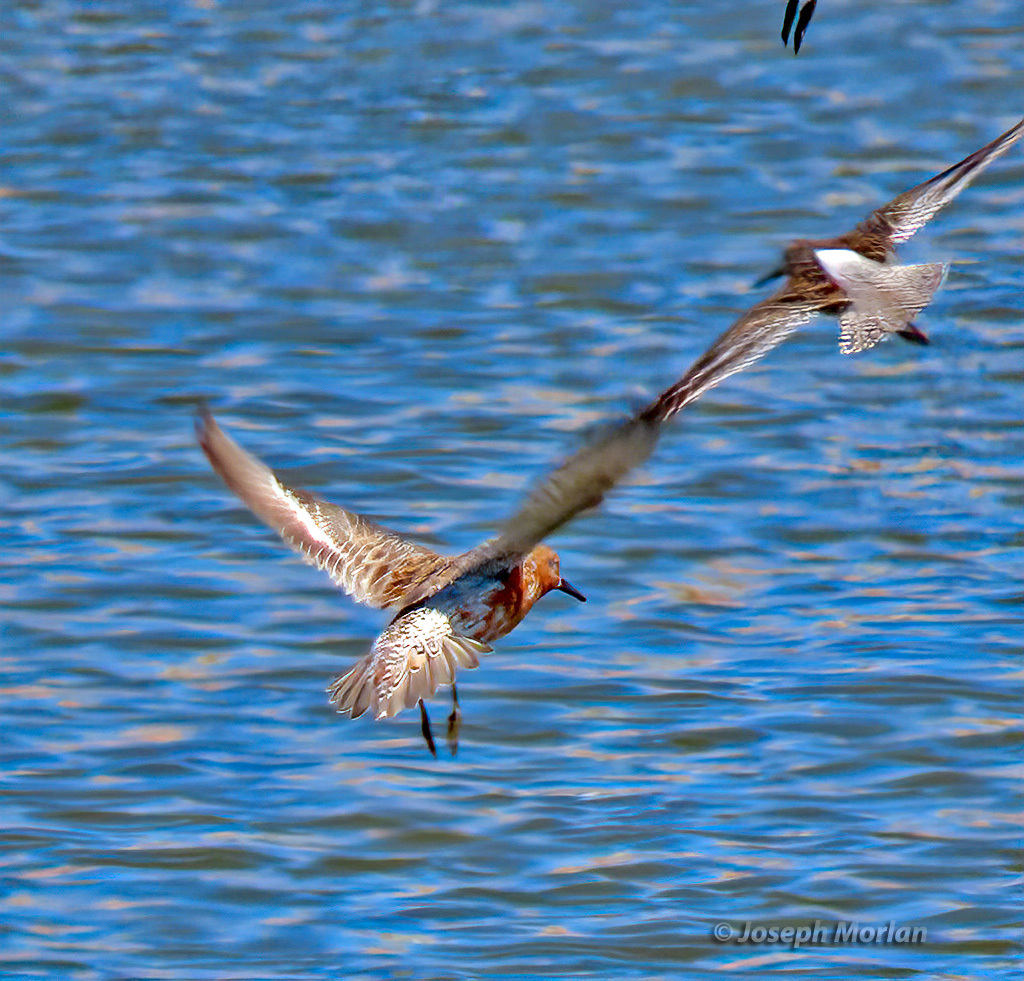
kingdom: Animalia
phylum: Chordata
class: Aves
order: Charadriiformes
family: Scolopacidae
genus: Calidris
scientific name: Calidris canutus
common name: Red knot
